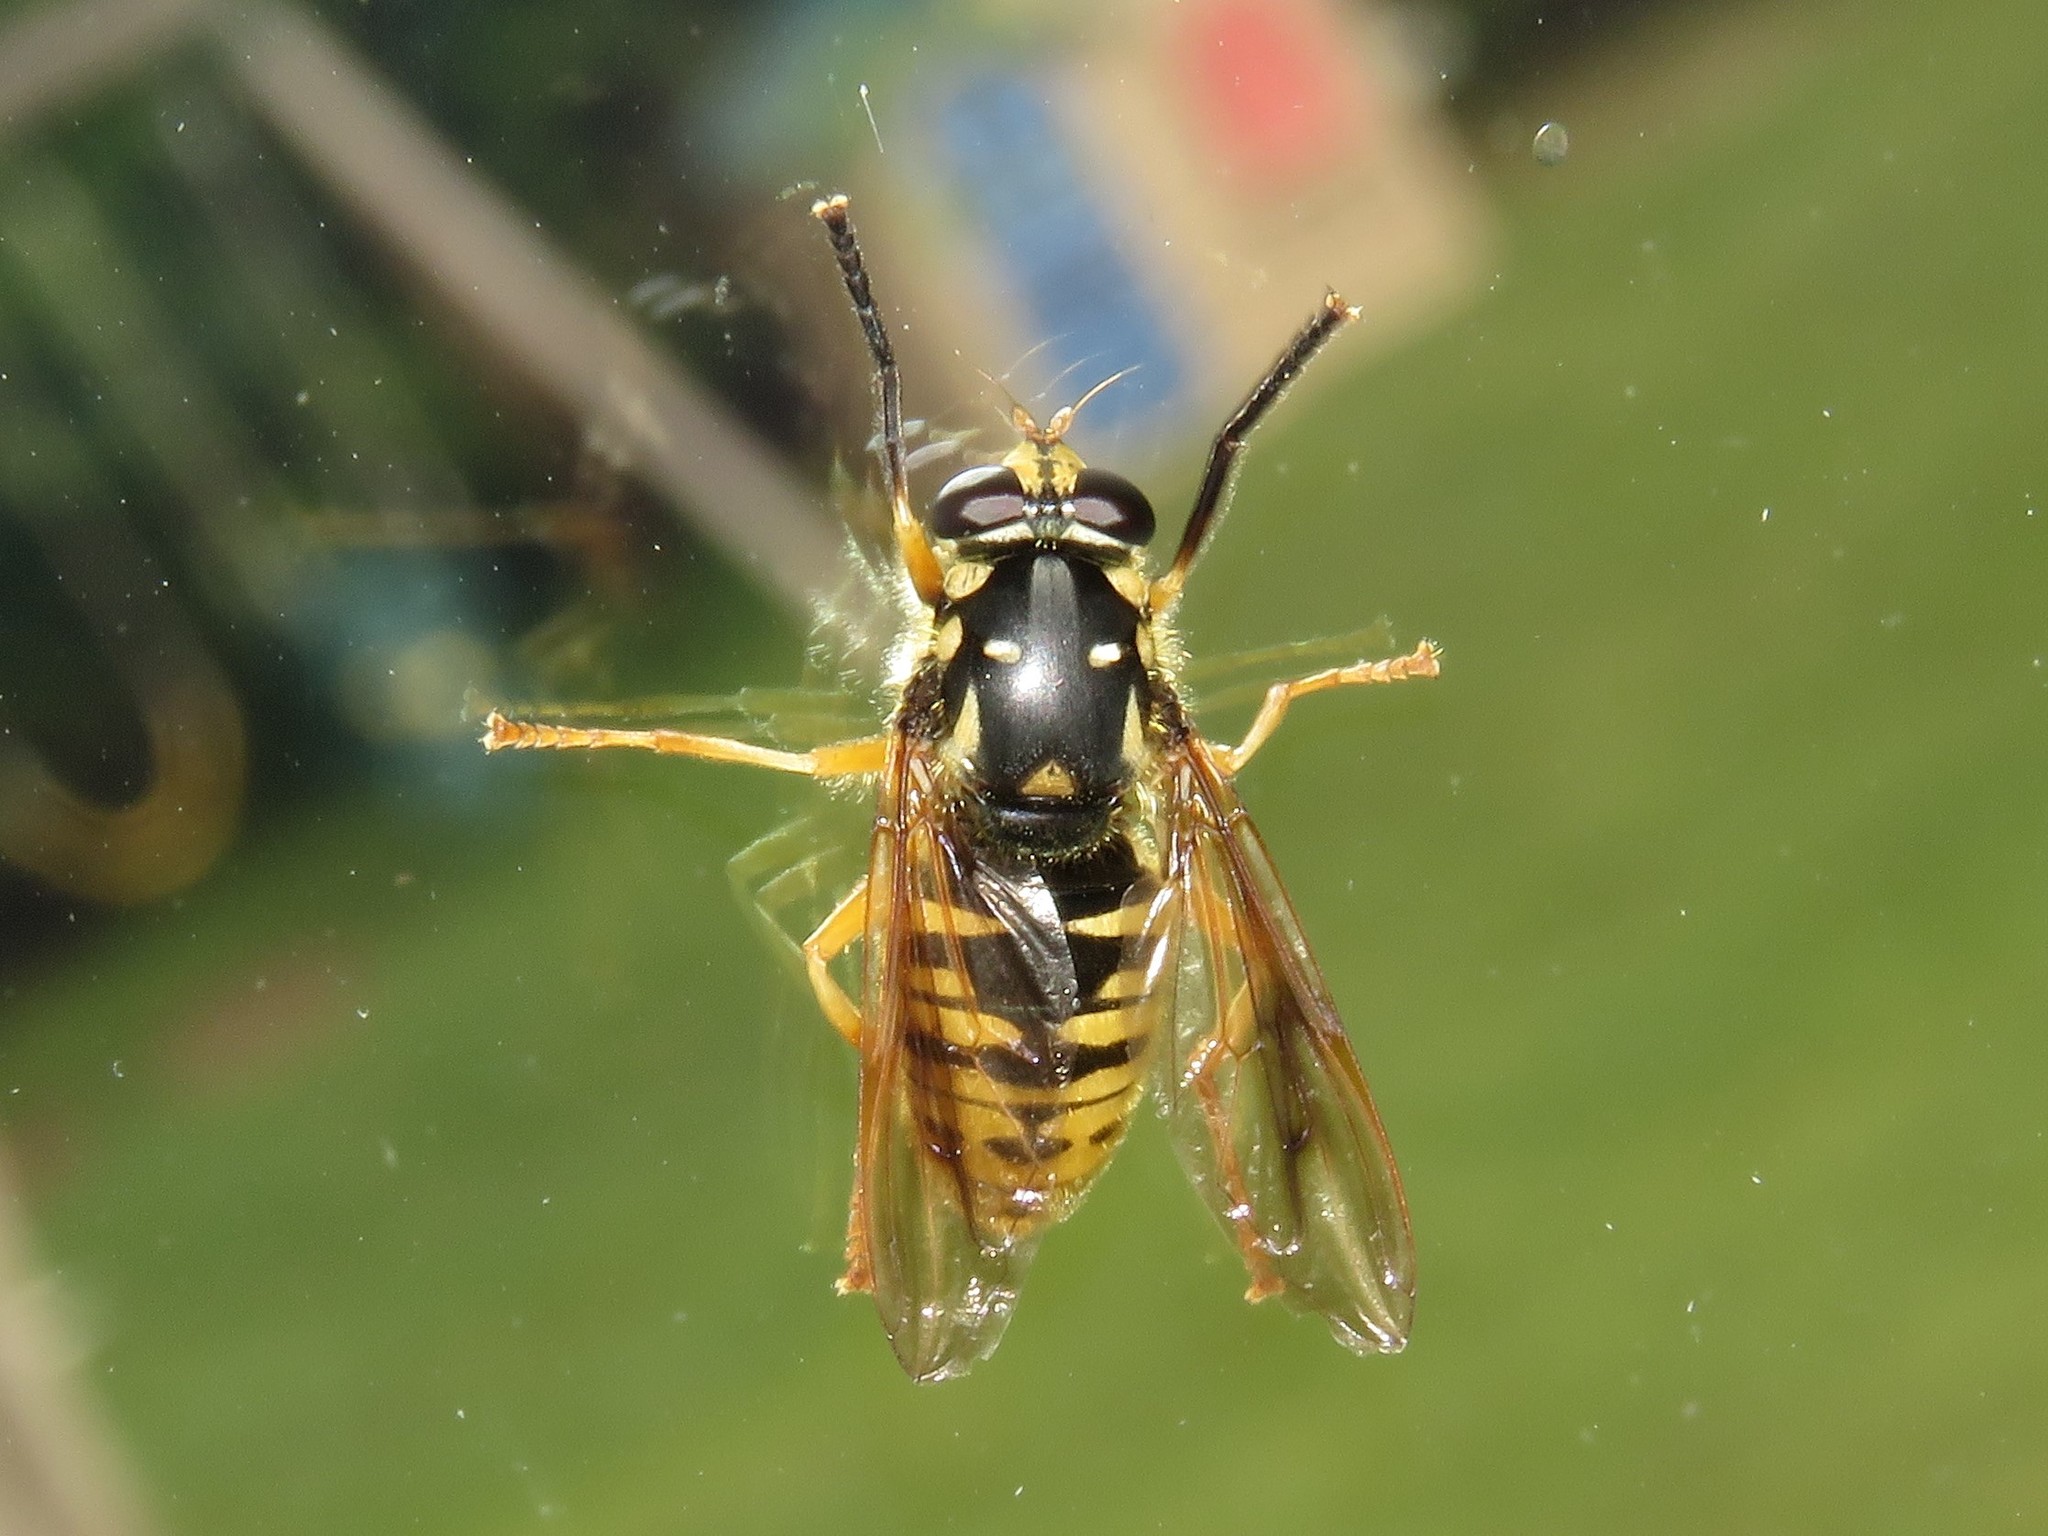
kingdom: Animalia
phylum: Arthropoda
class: Insecta
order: Diptera
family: Syrphidae
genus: Temnostoma
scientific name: Temnostoma alternans
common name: Wasp-like falsehorn
